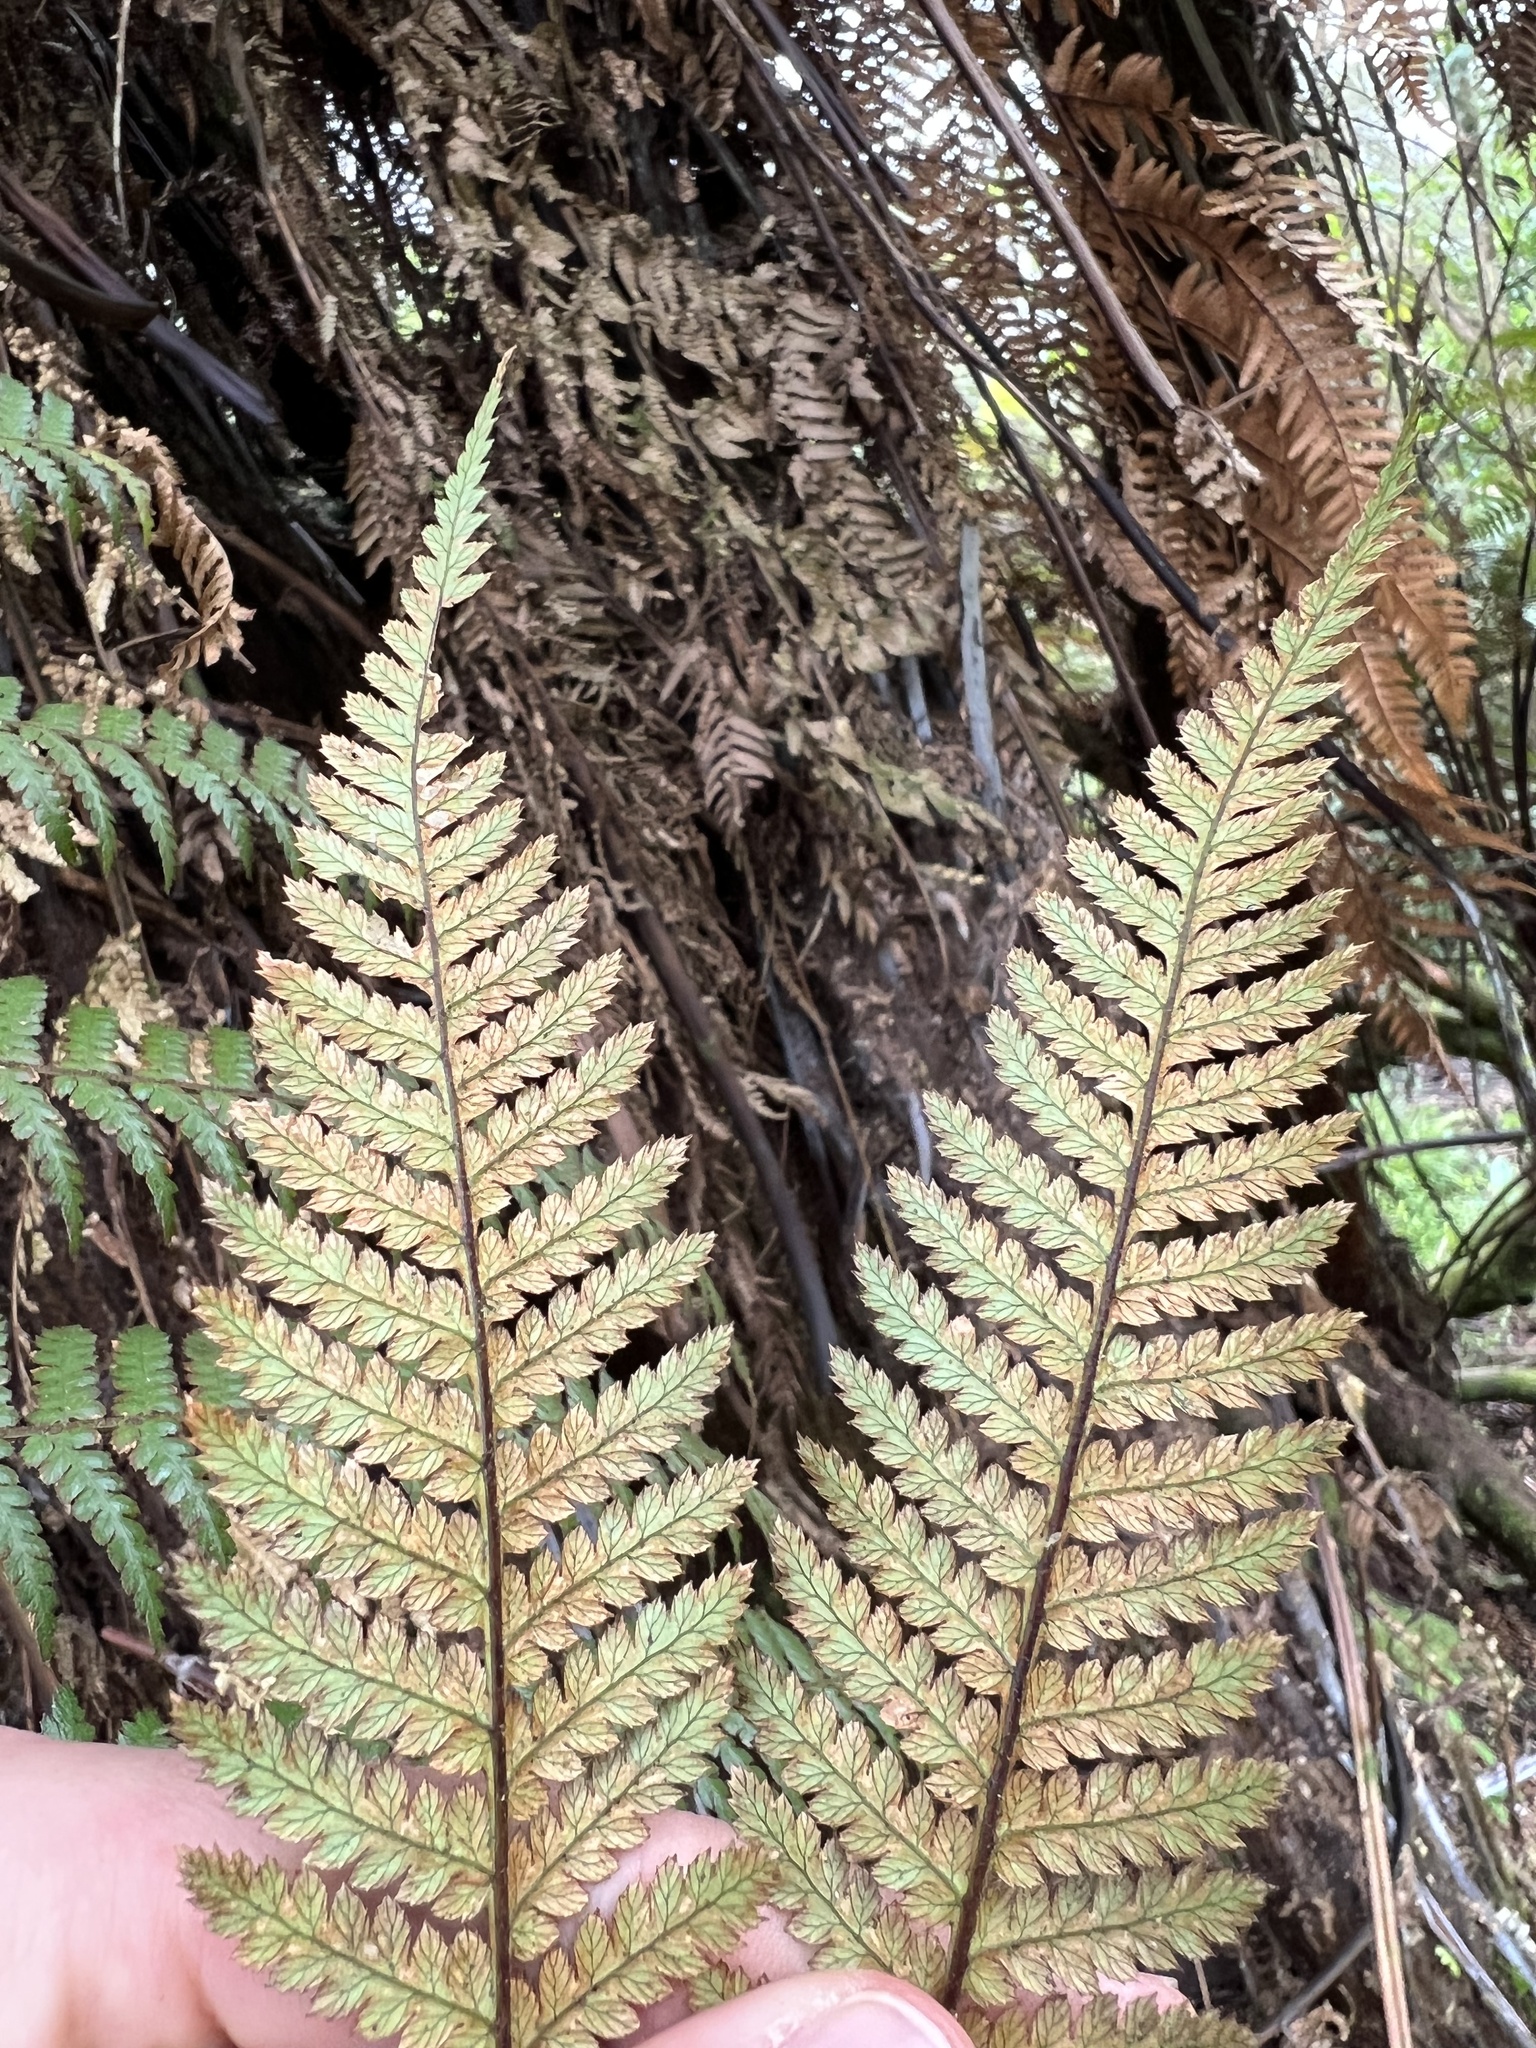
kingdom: Plantae
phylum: Tracheophyta
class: Polypodiopsida
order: Cyatheales
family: Dicksoniaceae
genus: Dicksonia
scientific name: Dicksonia squarrosa
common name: Hard treefern
